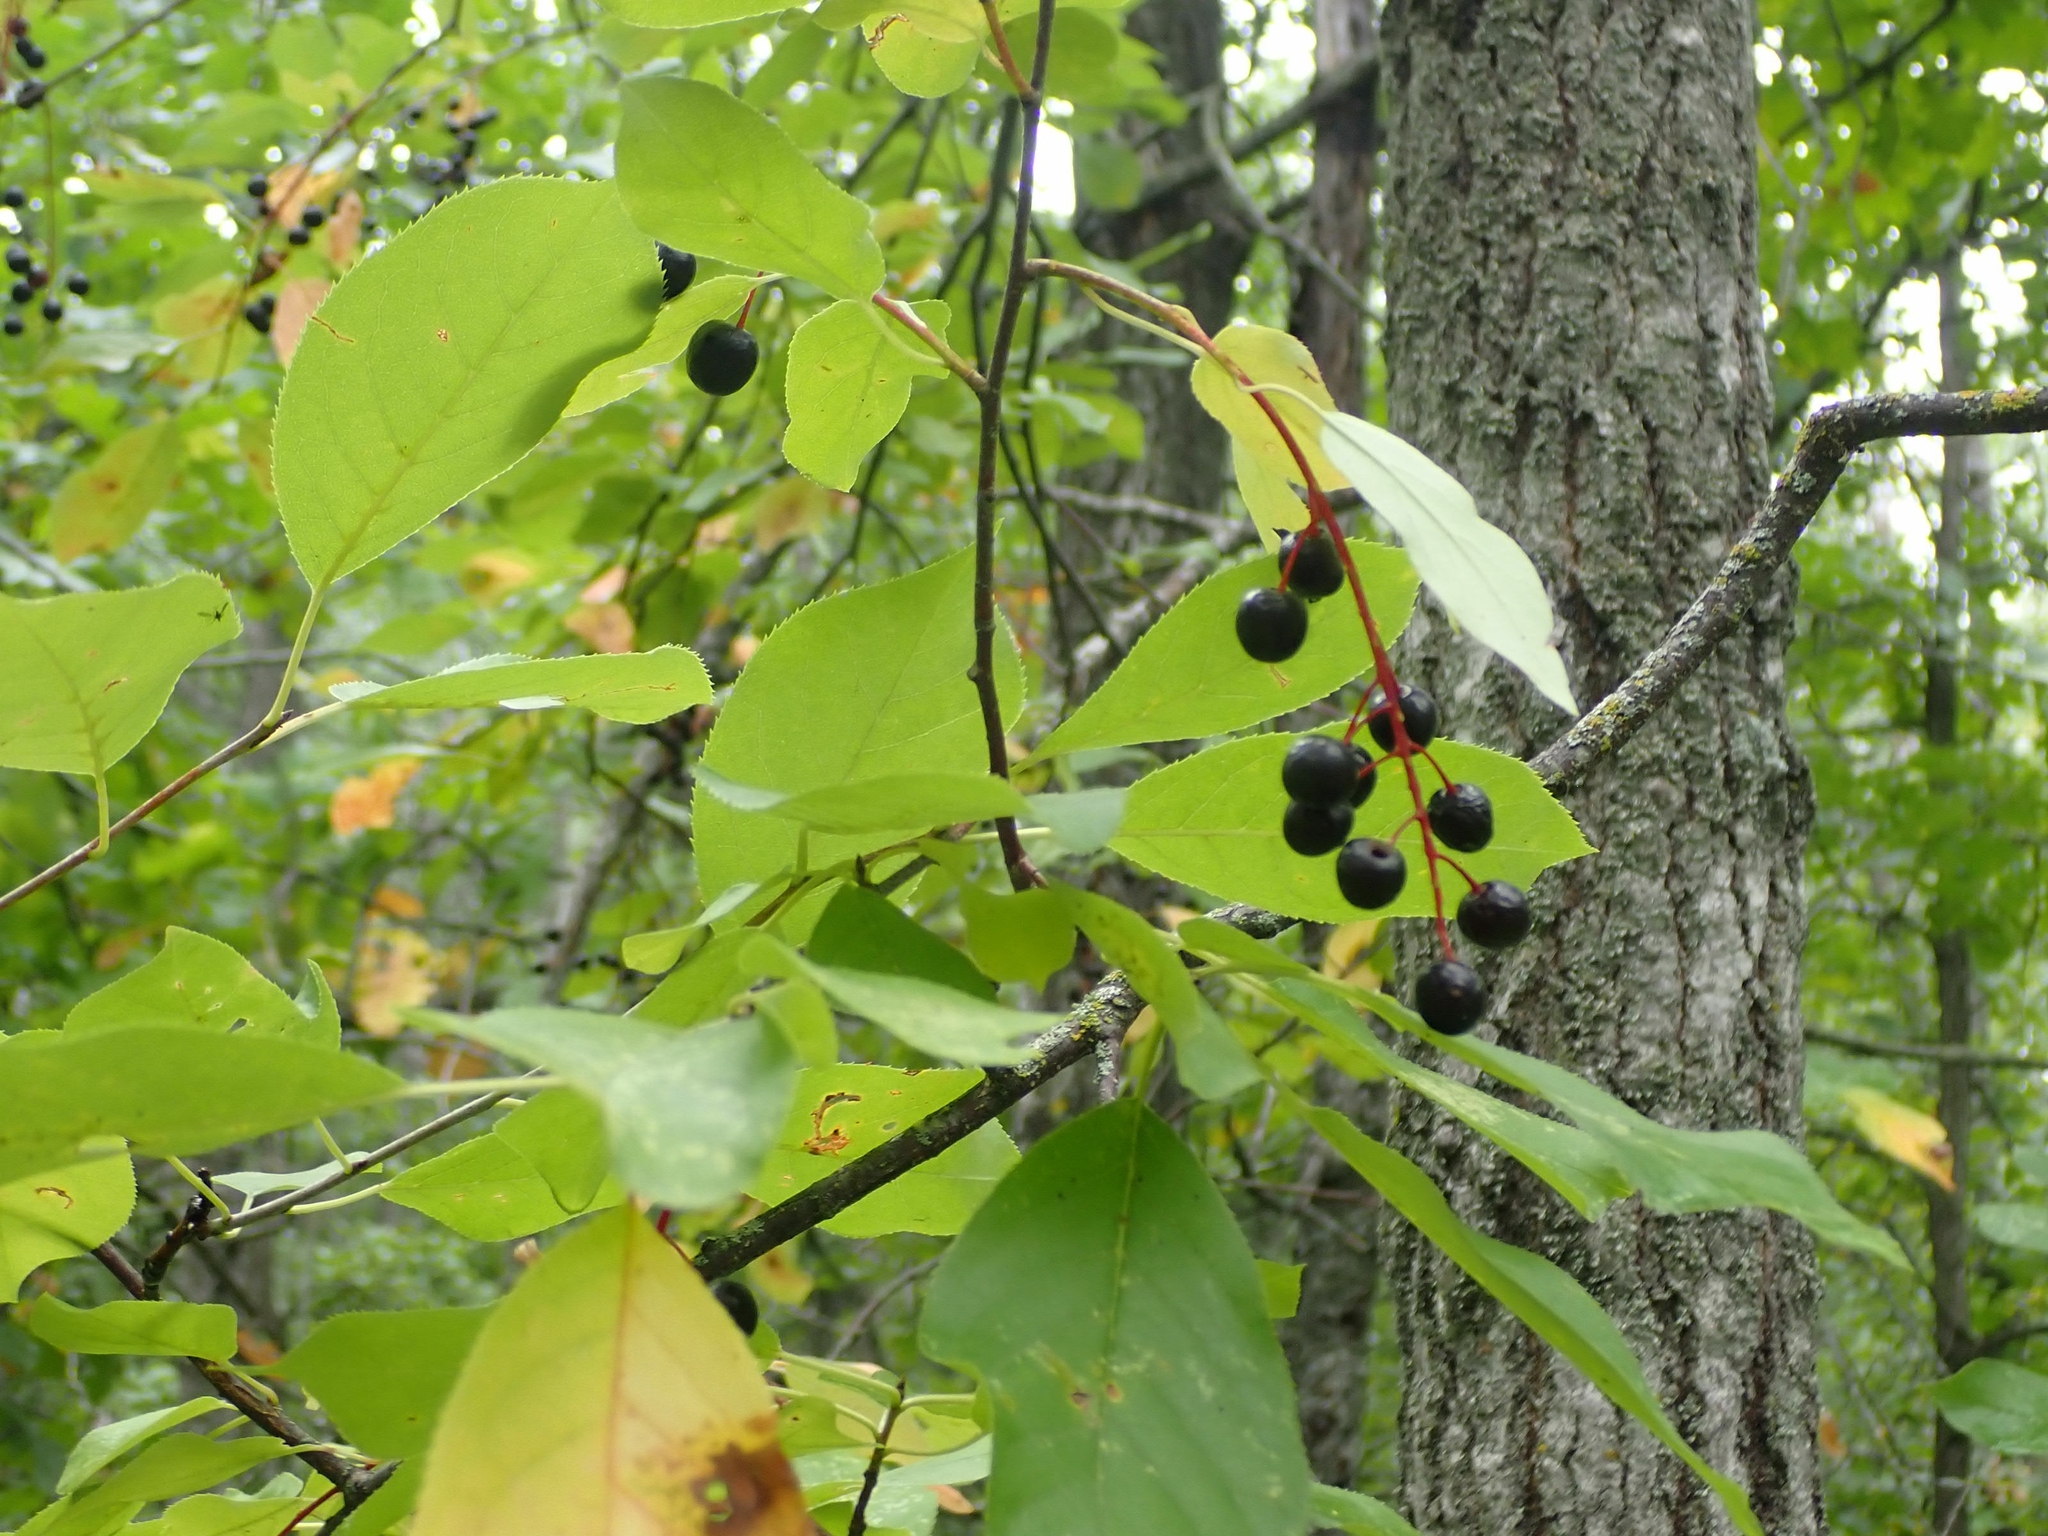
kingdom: Plantae
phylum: Tracheophyta
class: Magnoliopsida
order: Rosales
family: Rosaceae
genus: Prunus
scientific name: Prunus virginiana
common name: Chokecherry
